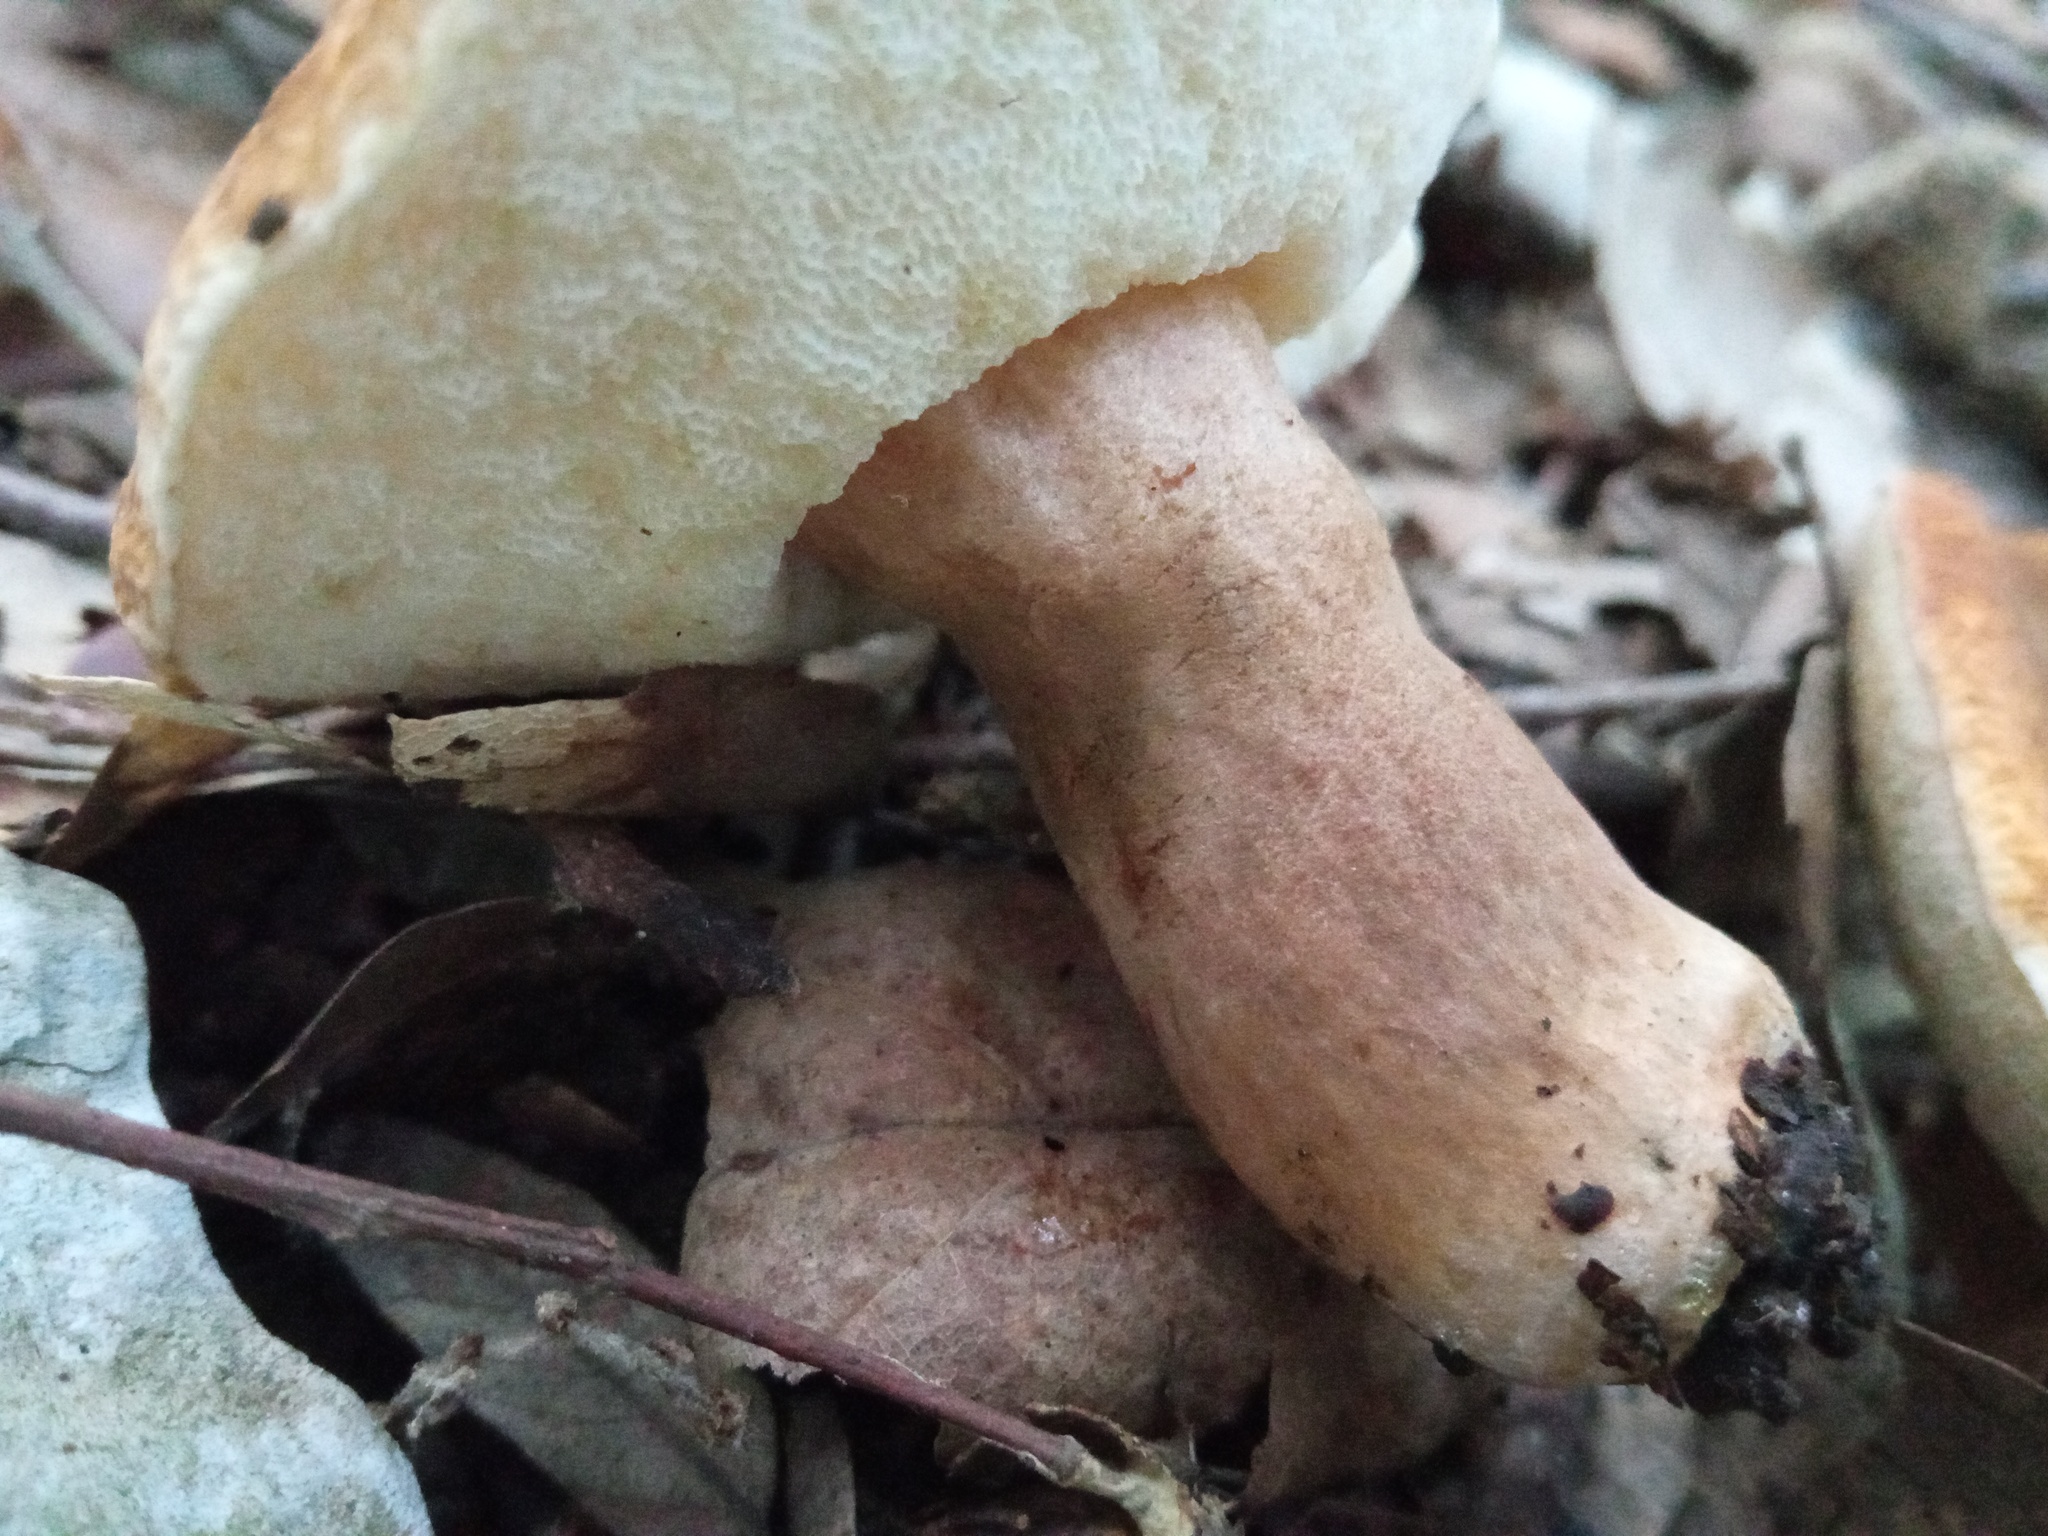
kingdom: Fungi
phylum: Basidiomycota
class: Agaricomycetes
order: Boletales
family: Gyroporaceae
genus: Gyroporus
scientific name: Gyroporus castaneus
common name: Chestnut bolete
